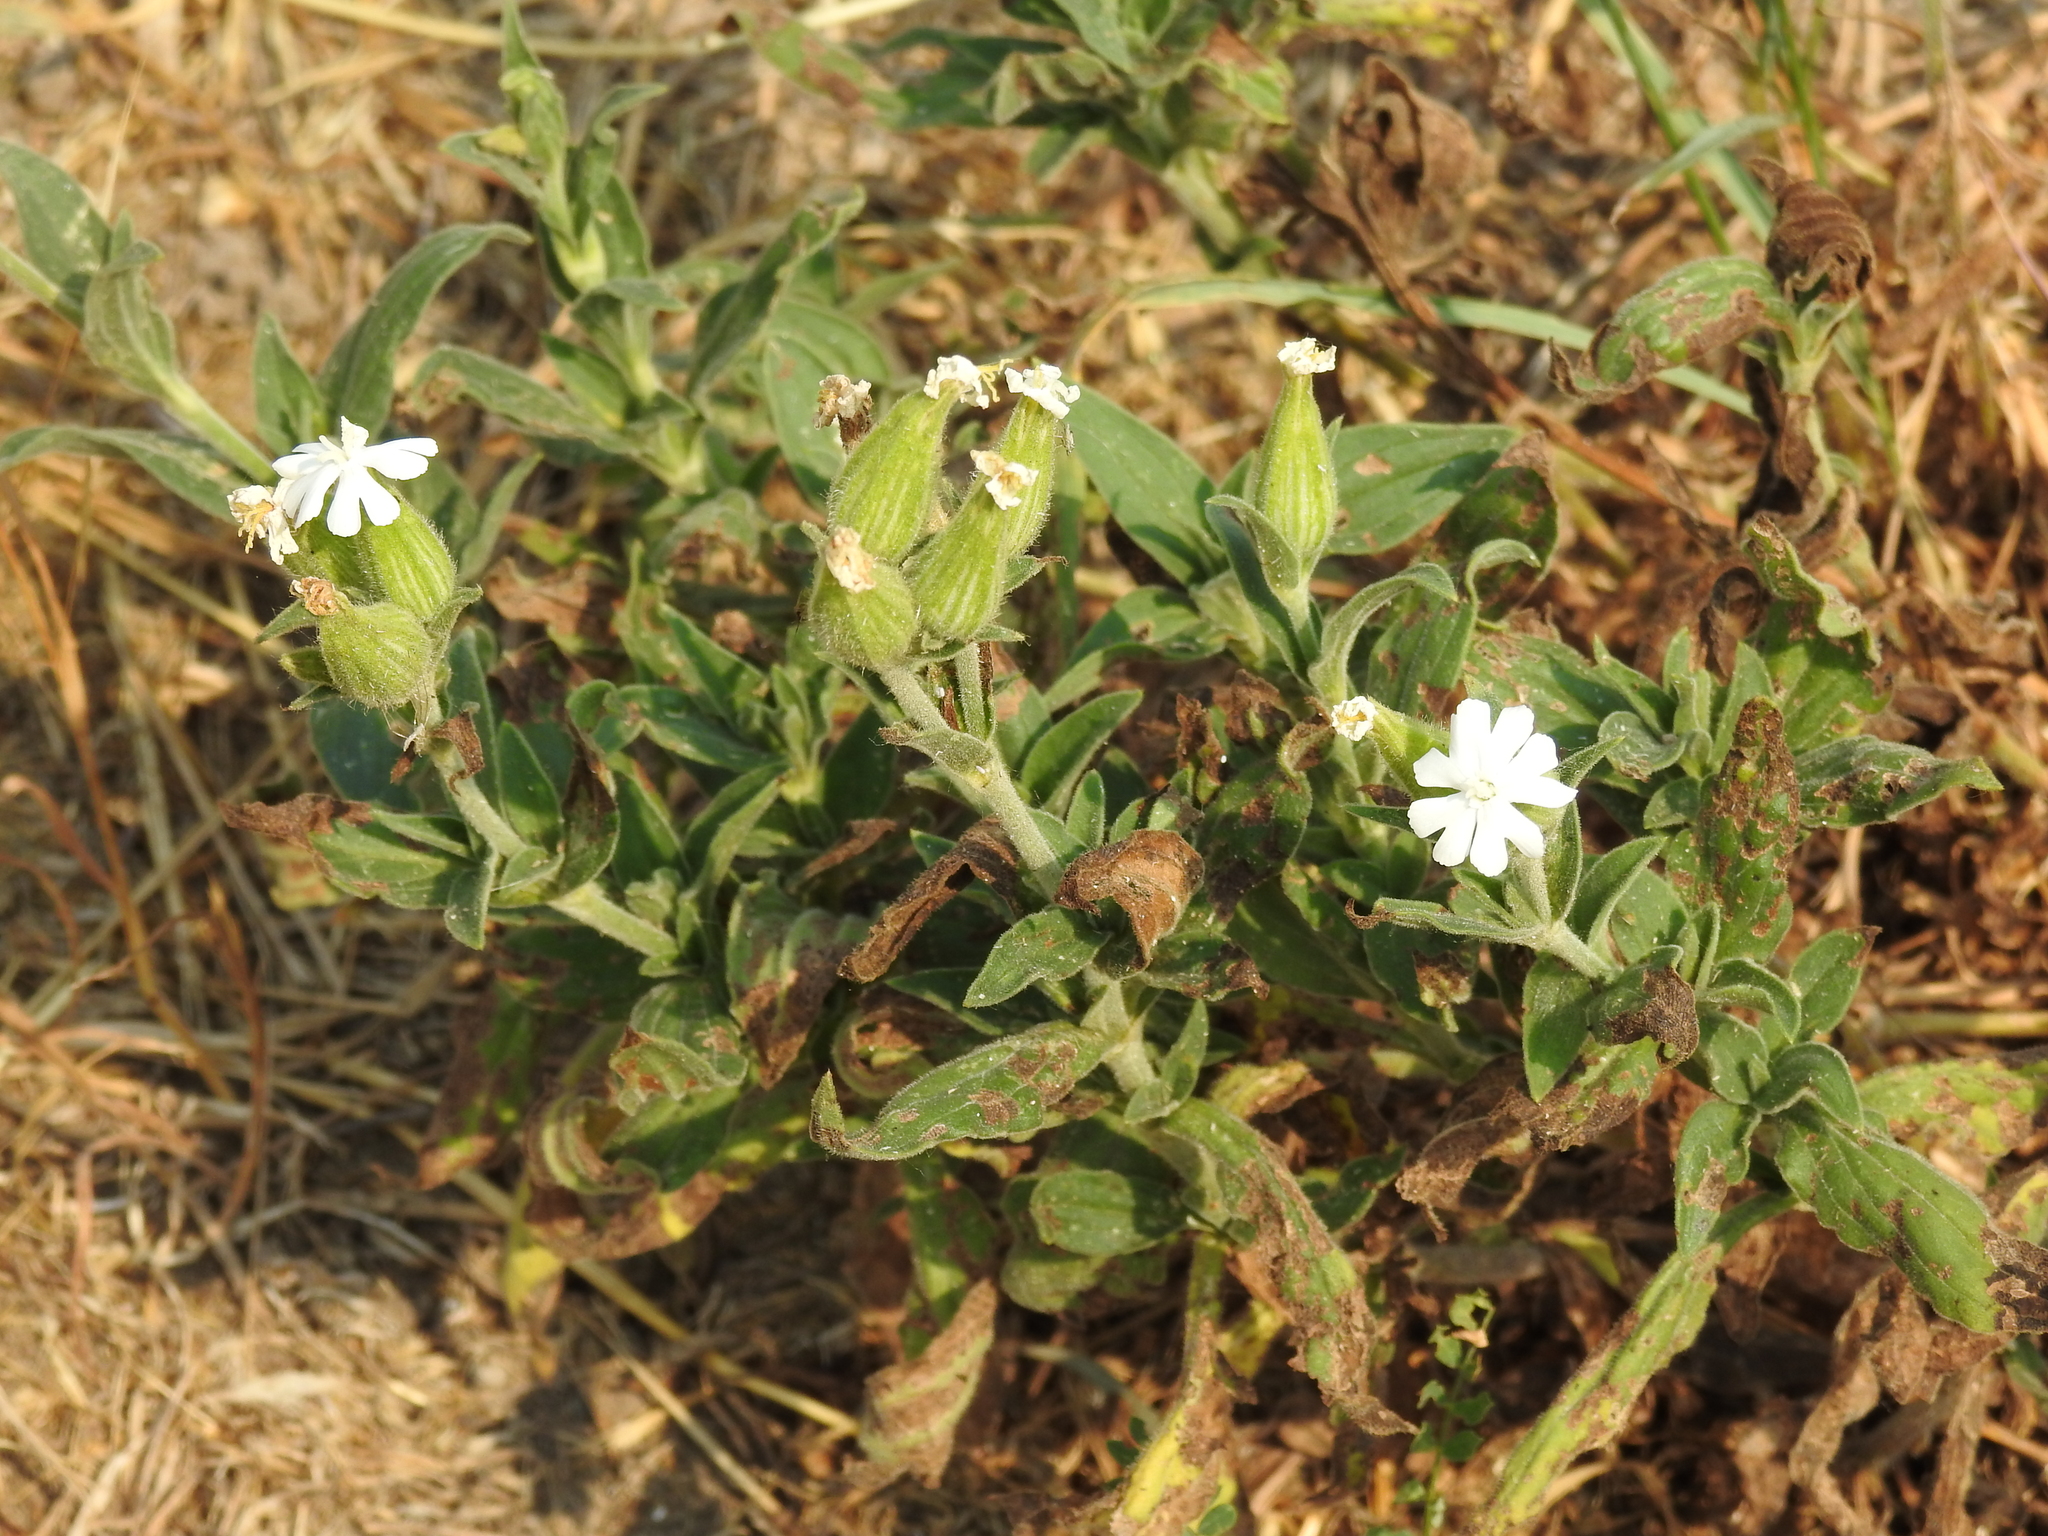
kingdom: Plantae
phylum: Tracheophyta
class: Magnoliopsida
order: Caryophyllales
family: Caryophyllaceae
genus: Silene
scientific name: Silene latifolia
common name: White campion
